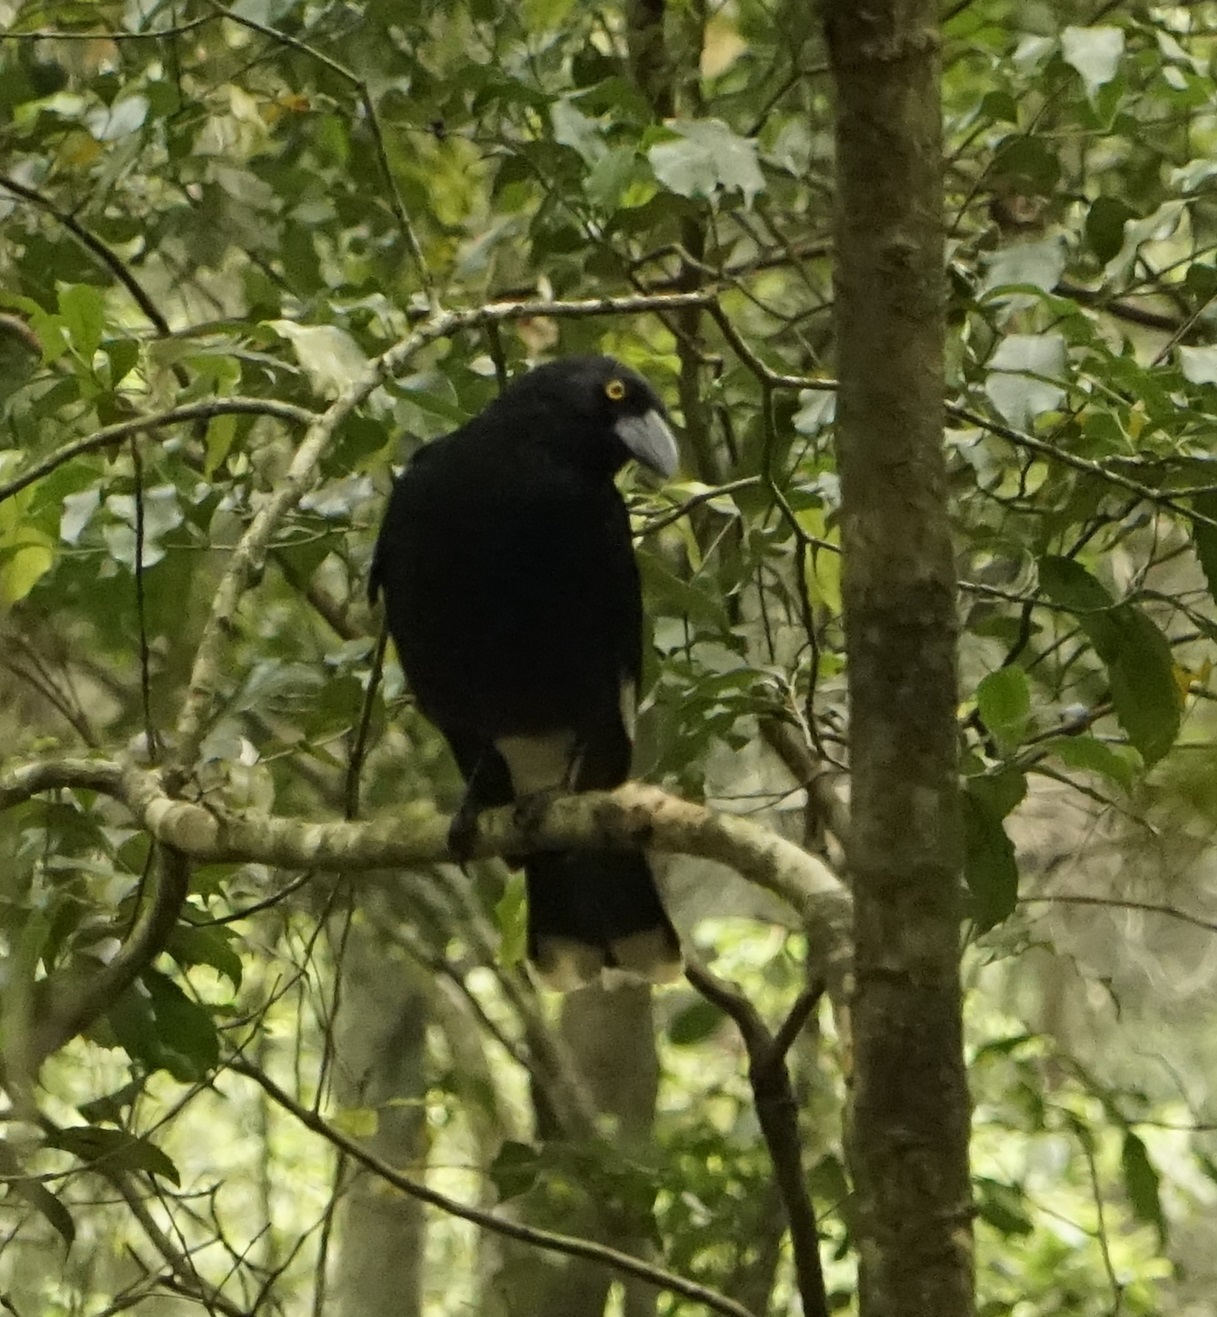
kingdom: Animalia
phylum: Chordata
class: Aves
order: Passeriformes
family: Cracticidae
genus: Strepera
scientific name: Strepera graculina
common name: Pied currawong
